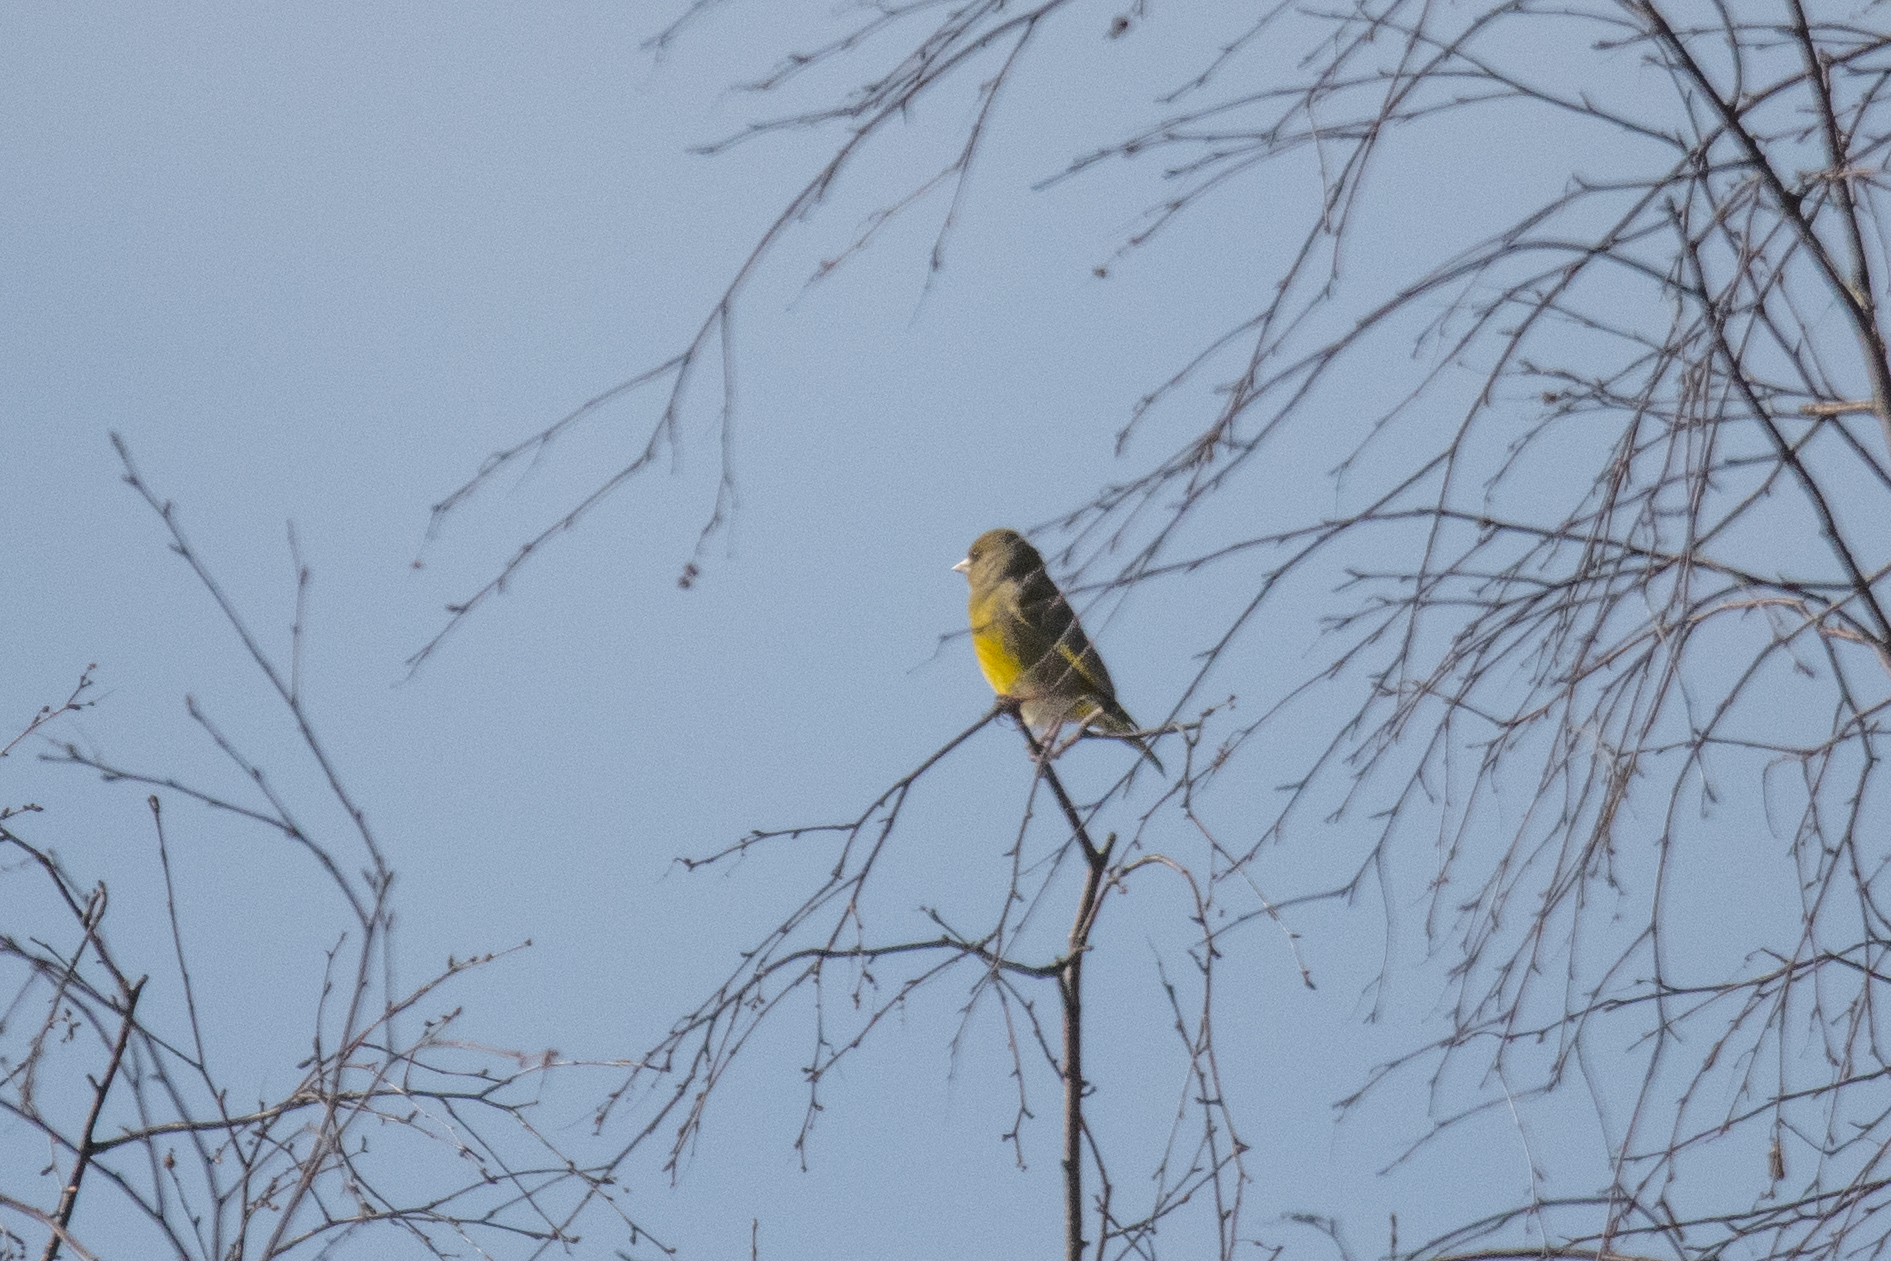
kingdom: Plantae
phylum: Tracheophyta
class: Liliopsida
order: Poales
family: Poaceae
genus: Chloris
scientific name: Chloris chloris
